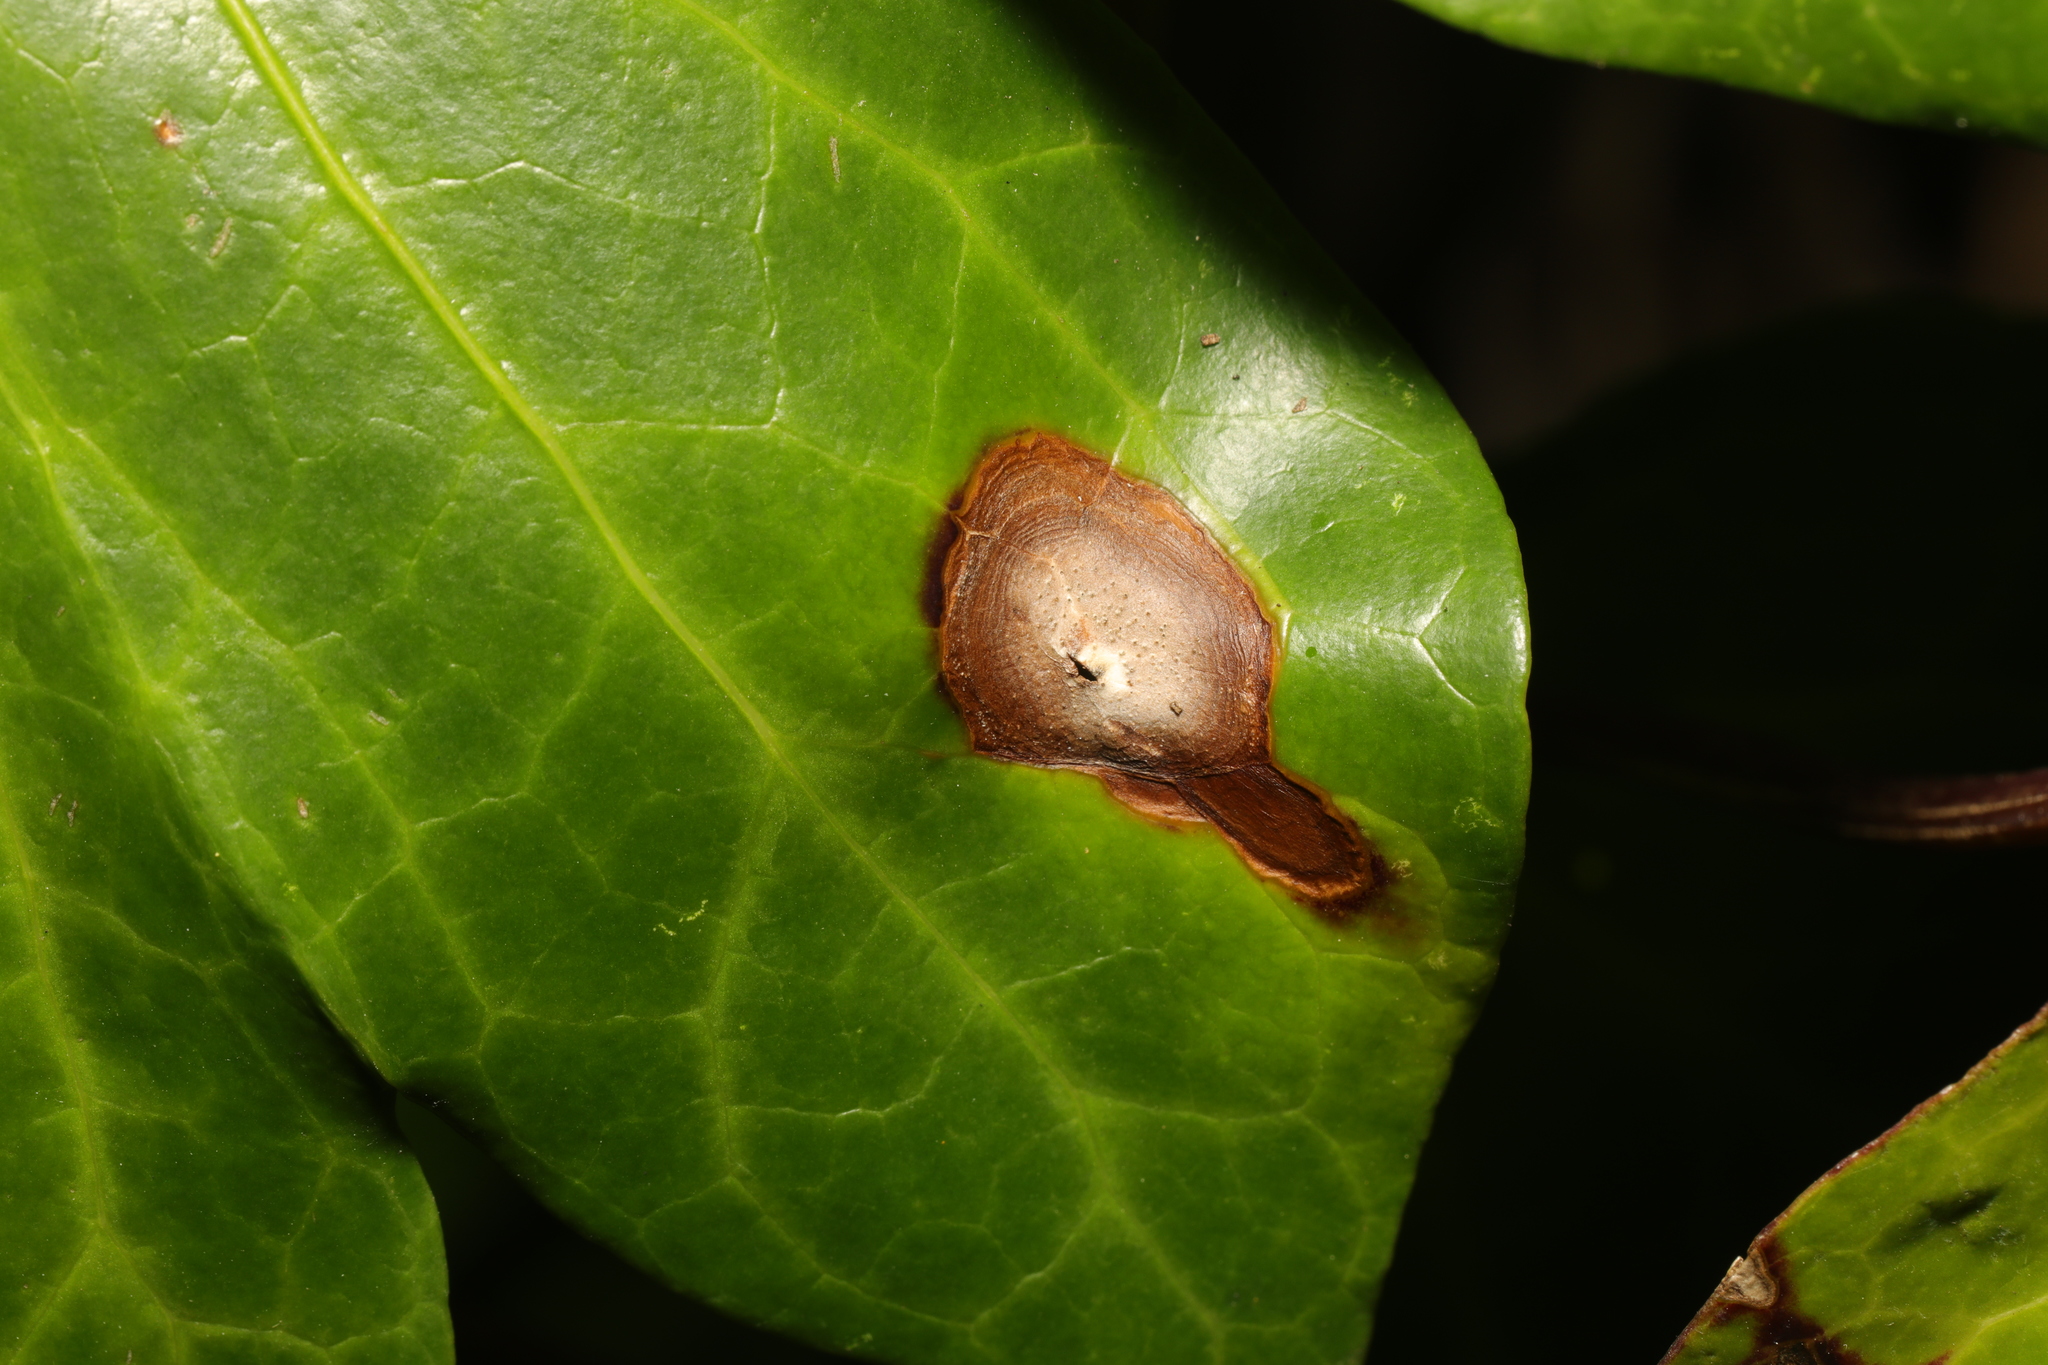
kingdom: Fungi
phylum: Ascomycota
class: Dothideomycetes
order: Pleosporales
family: Didymellaceae
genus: Boeremia
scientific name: Boeremia hedericola
